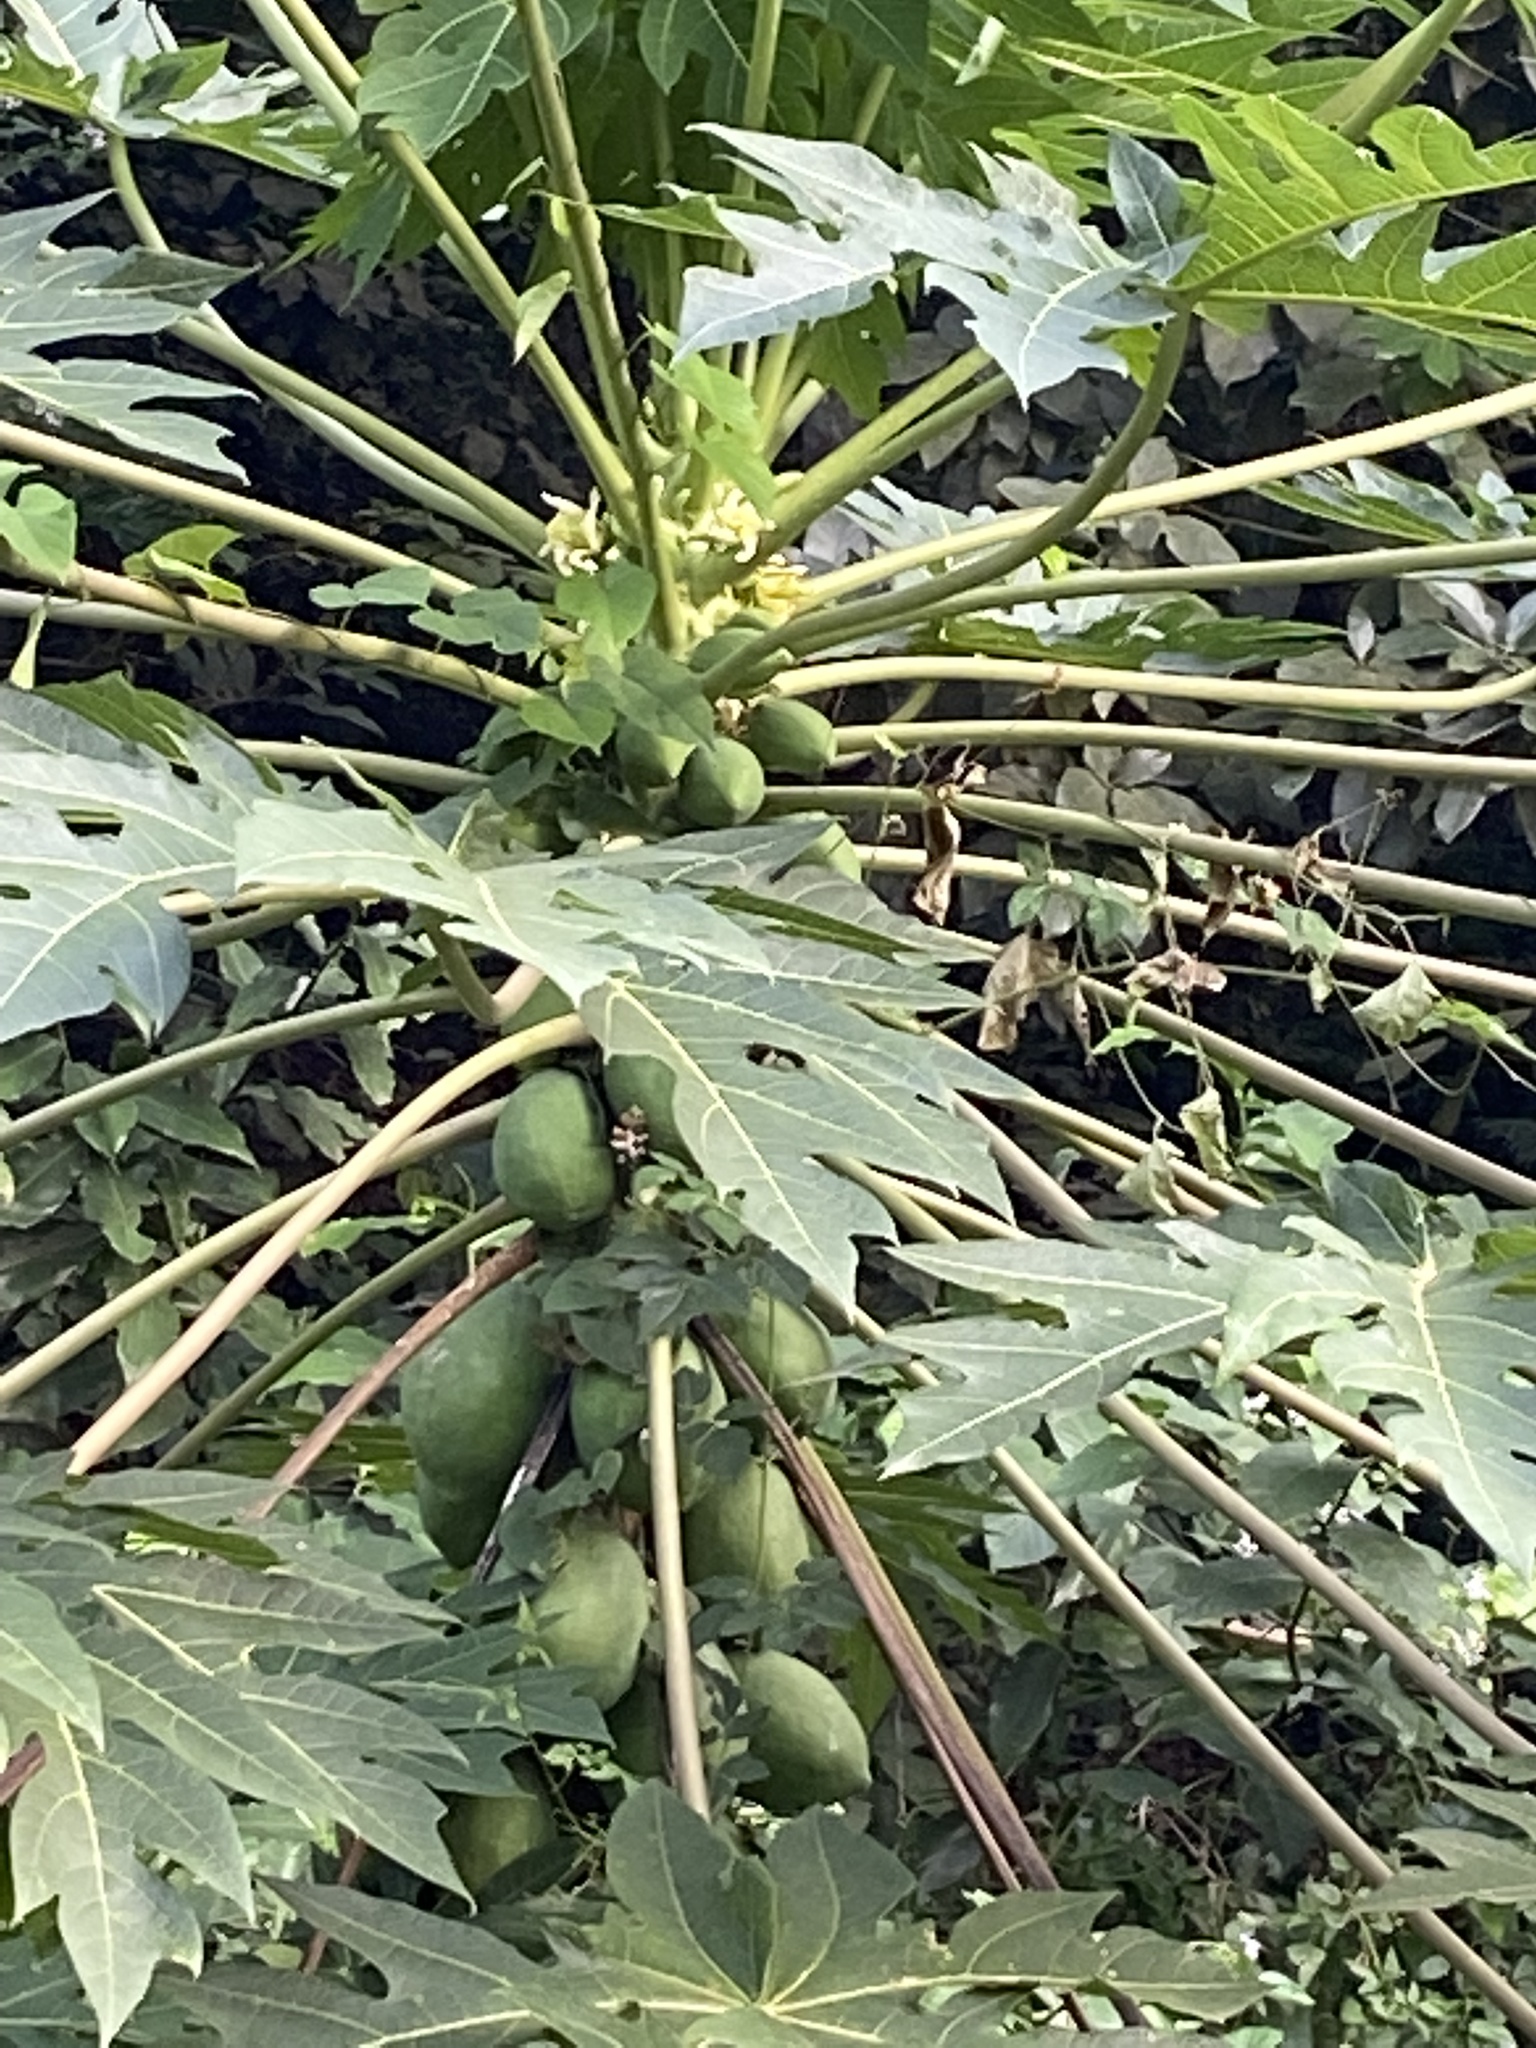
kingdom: Plantae
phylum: Tracheophyta
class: Magnoliopsida
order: Brassicales
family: Caricaceae
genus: Carica
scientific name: Carica papaya
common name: Papaya
